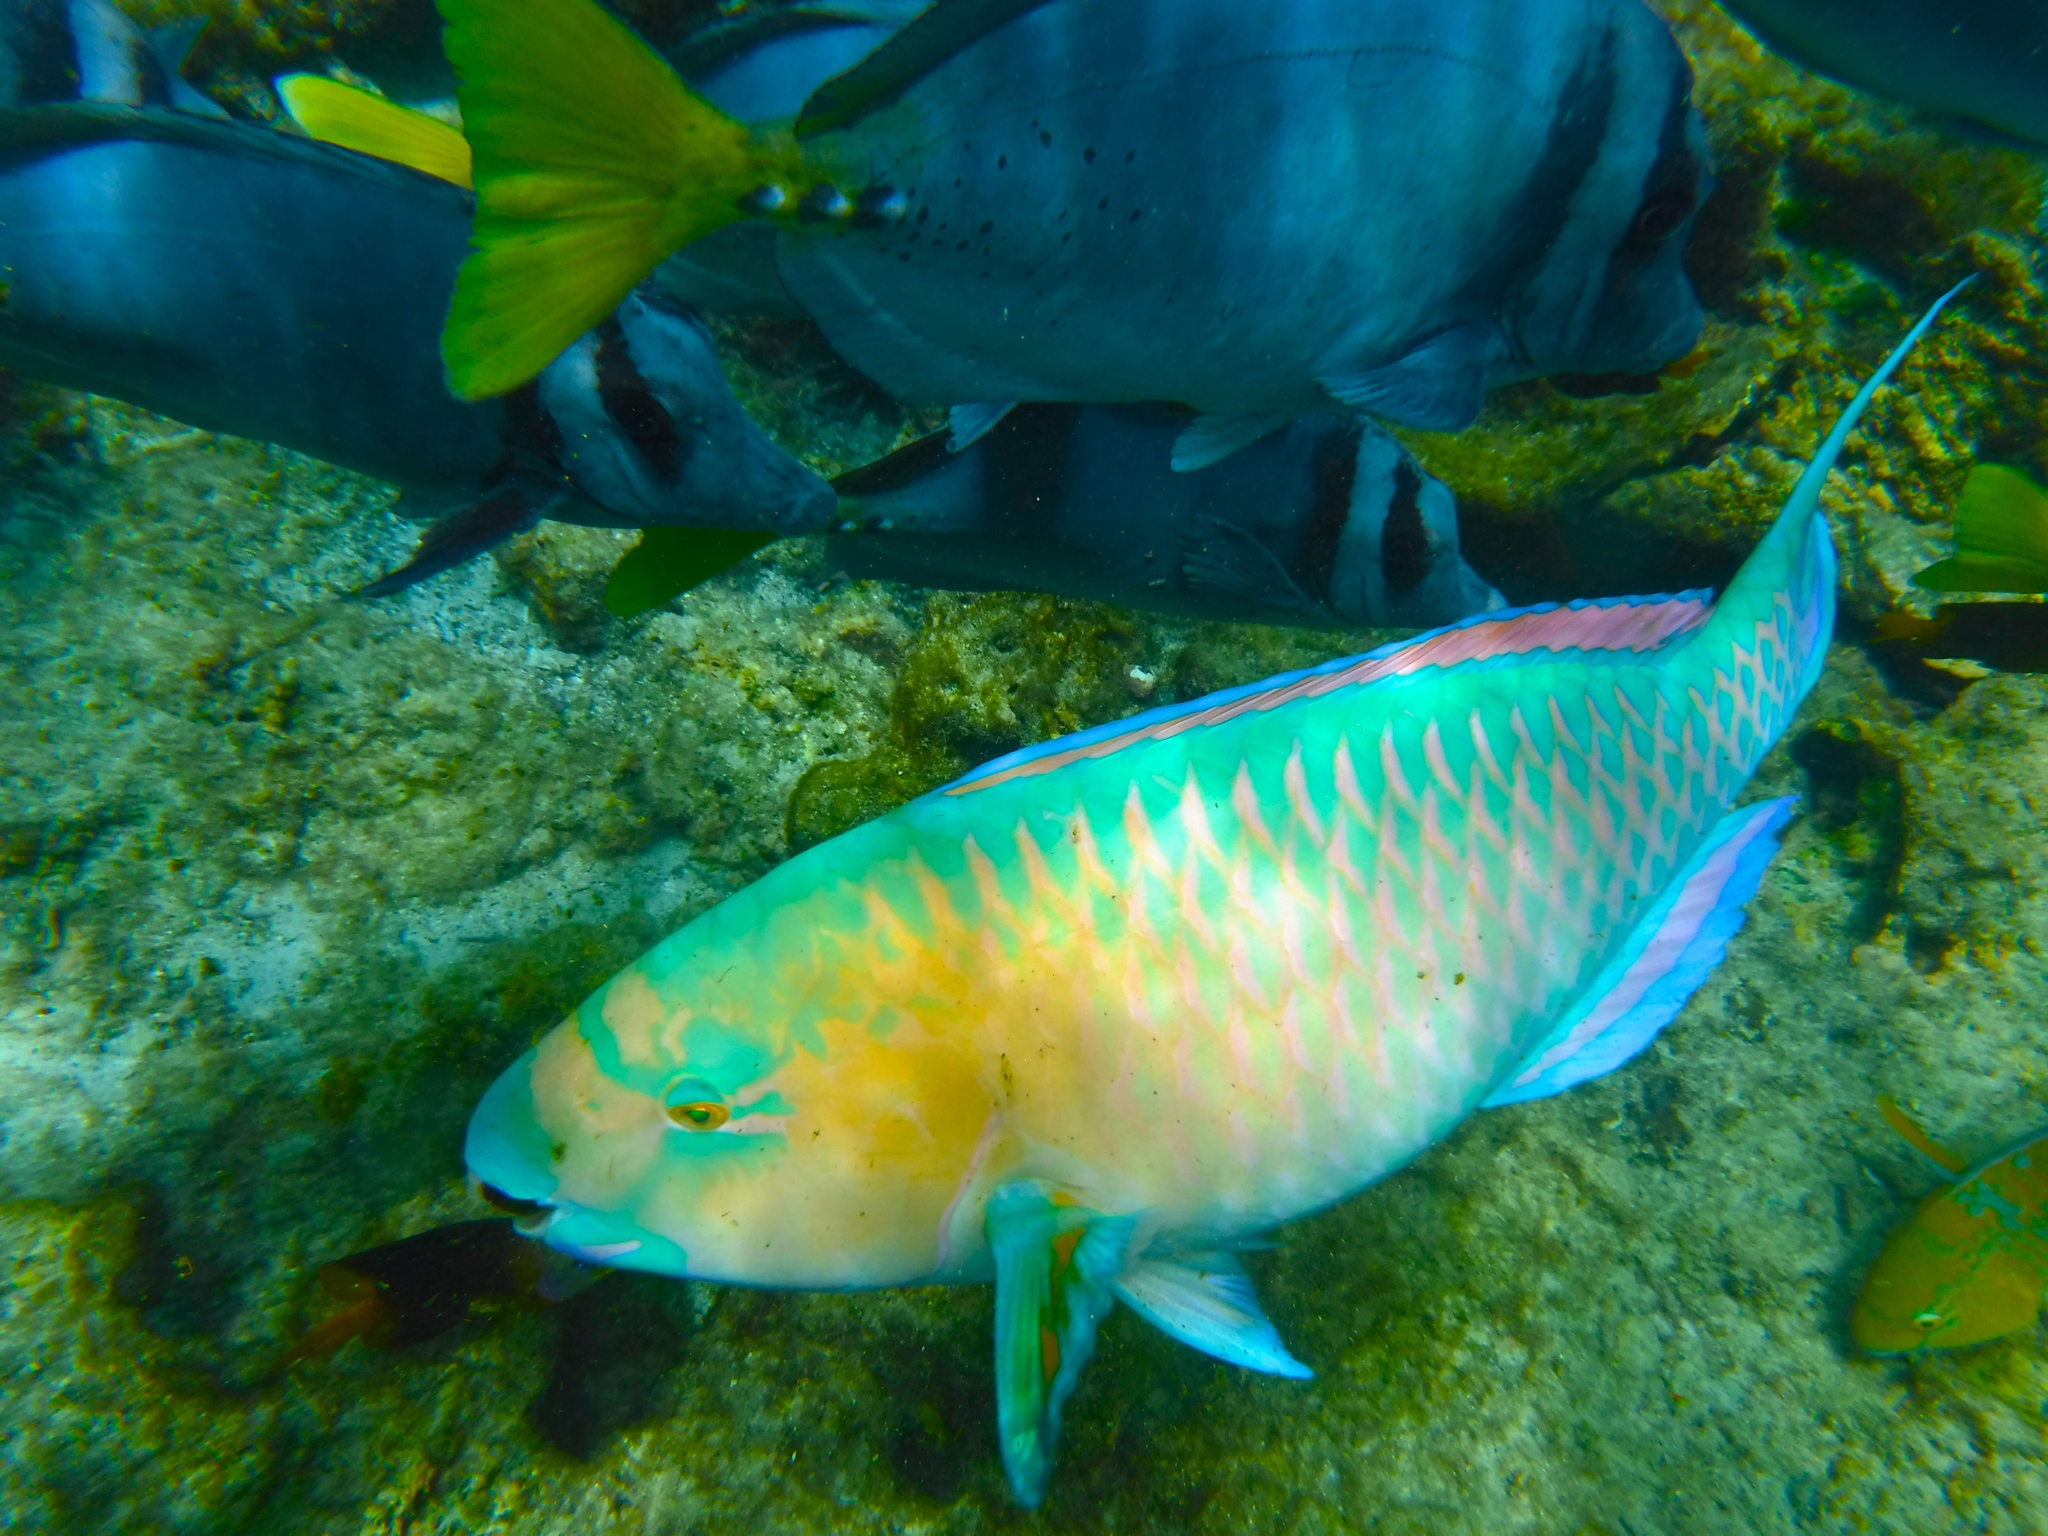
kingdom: Animalia
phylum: Chordata
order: Perciformes
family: Scaridae
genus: Scarus
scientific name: Scarus ghobban
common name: Blue-barred parrotfish
